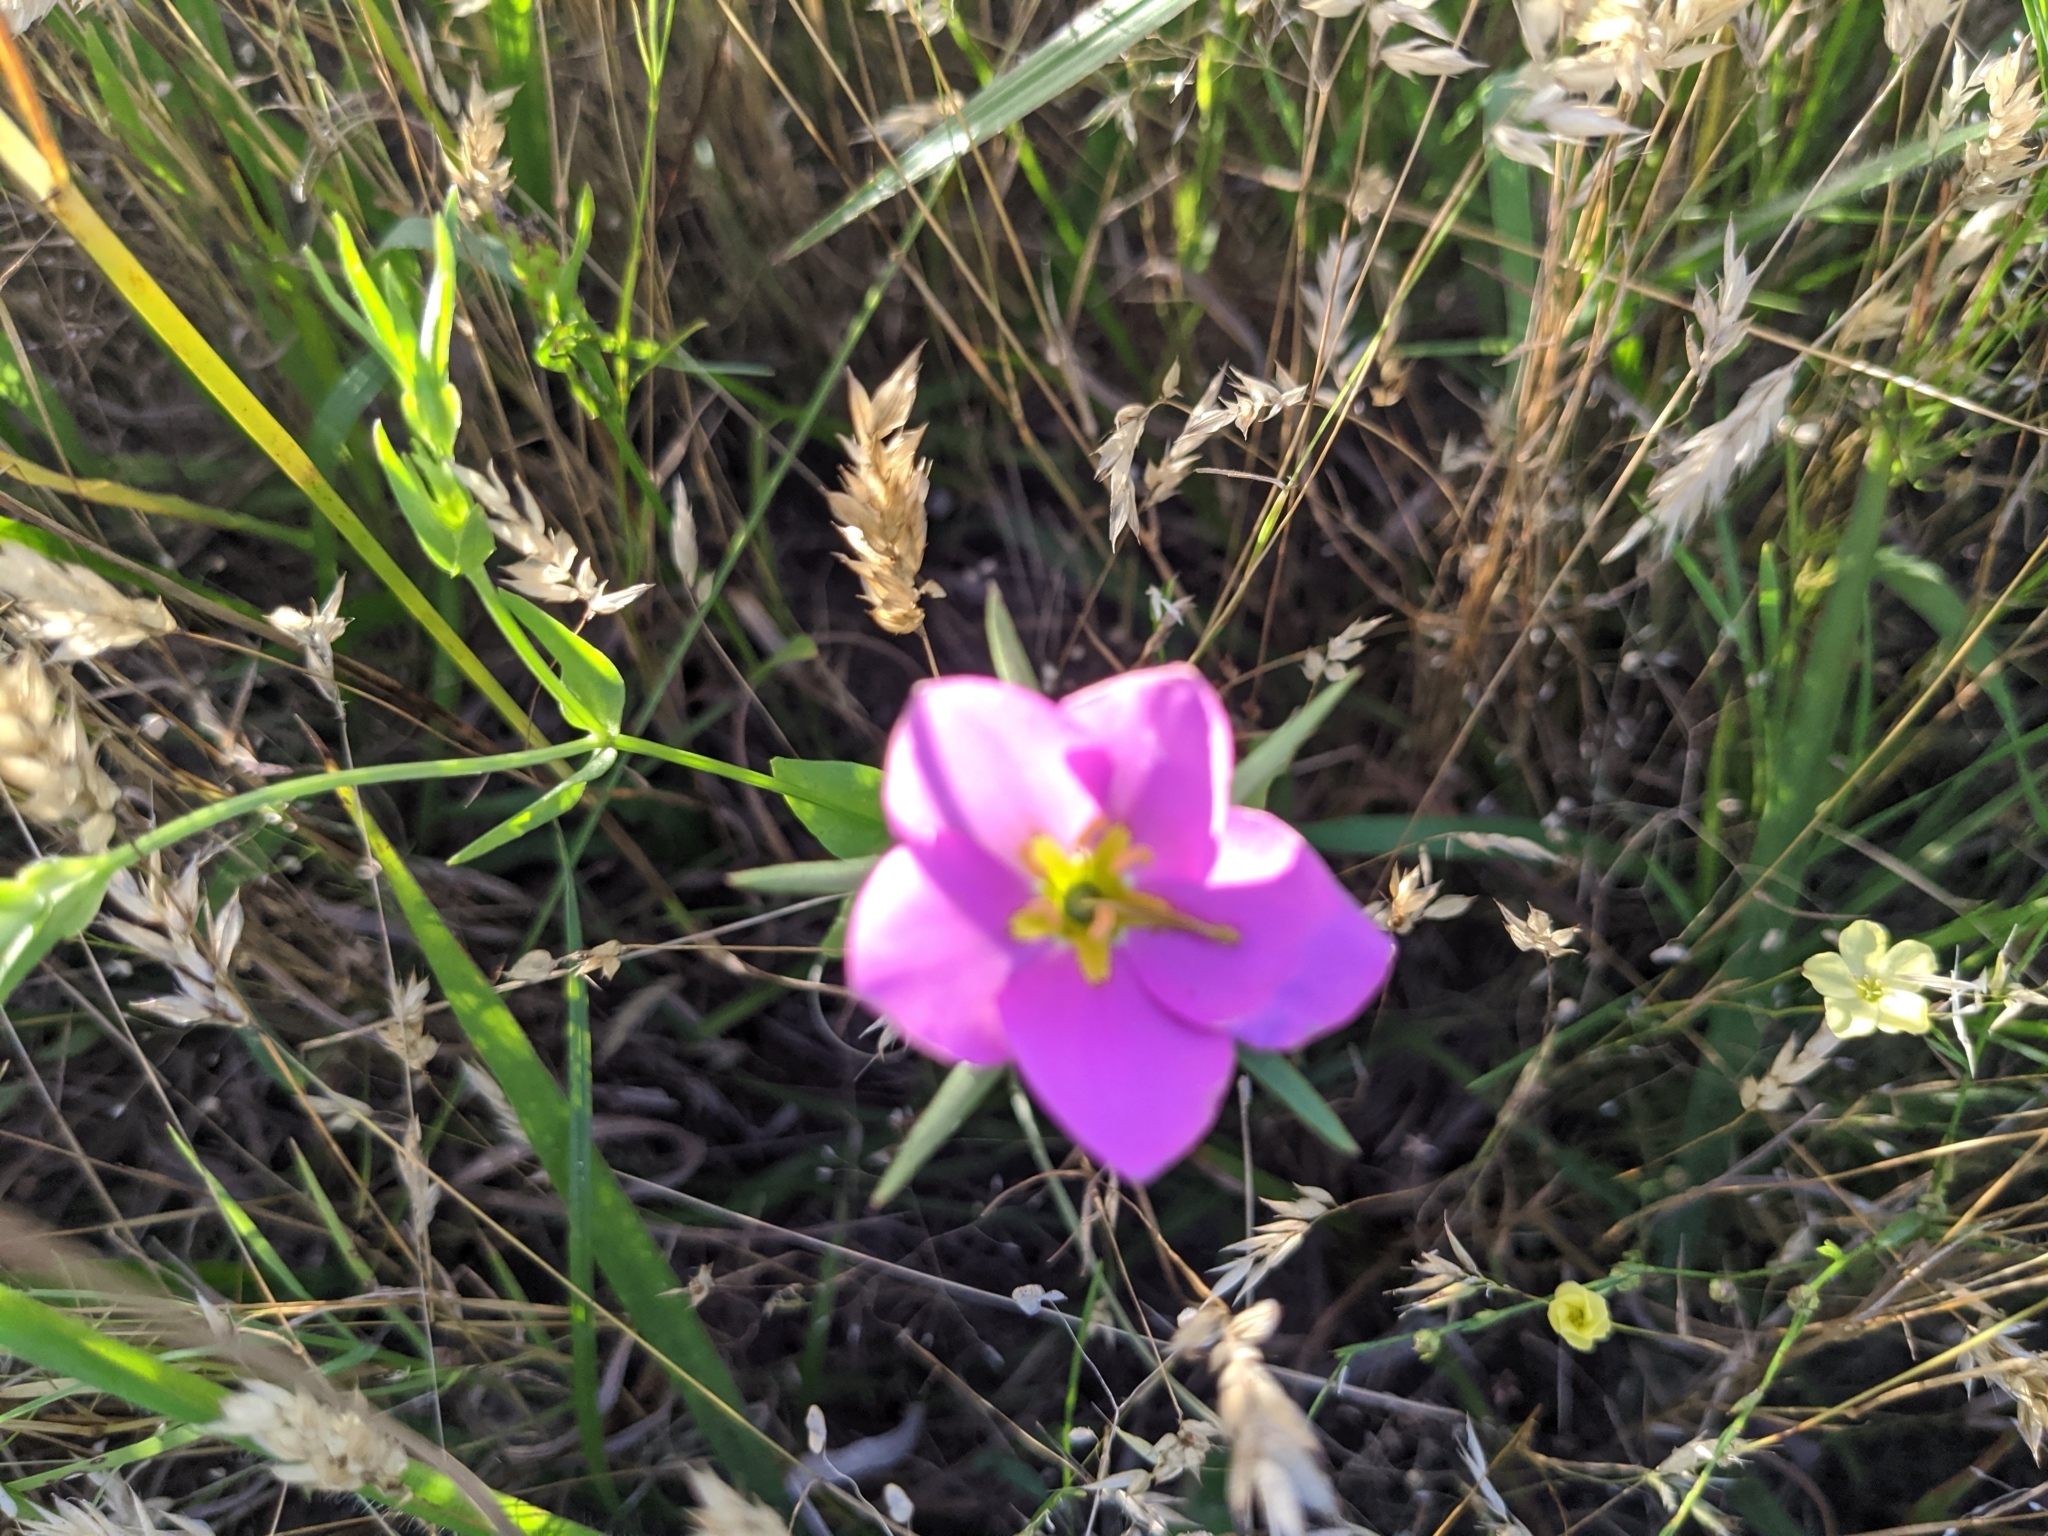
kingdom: Plantae
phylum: Tracheophyta
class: Magnoliopsida
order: Gentianales
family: Gentianaceae
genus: Sabatia
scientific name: Sabatia campestris
